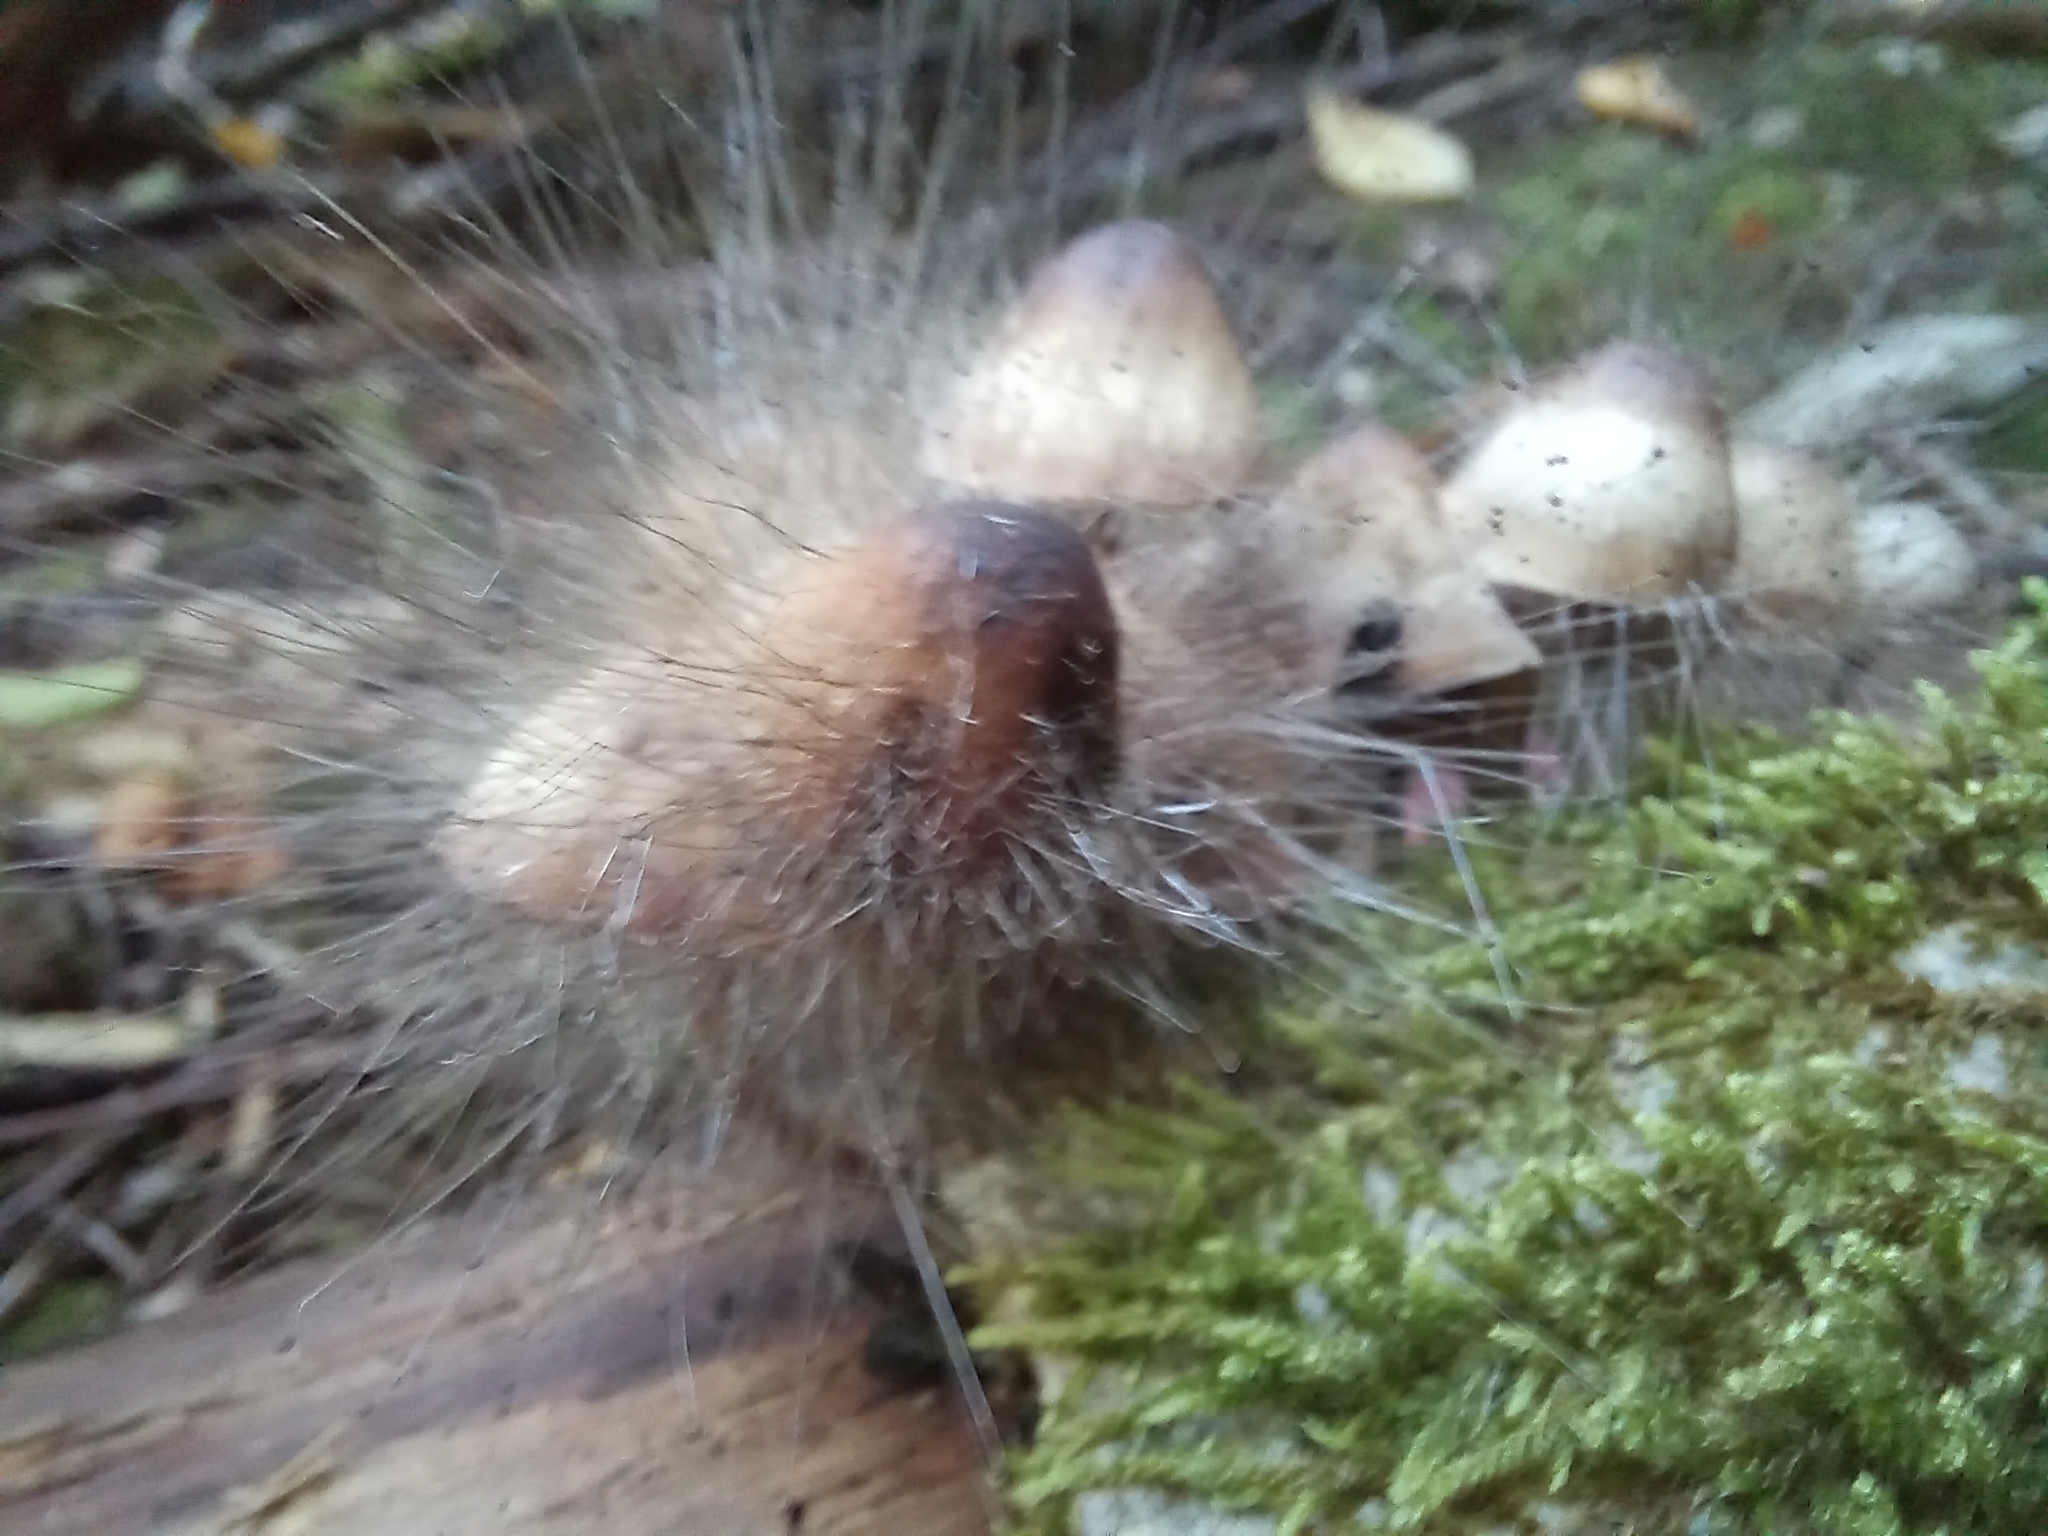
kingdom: Fungi
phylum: Mucoromycota
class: Mucoromycetes
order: Mucorales
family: Phycomycetaceae
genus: Spinellus
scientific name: Spinellus fusiger
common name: Bonnet mould
